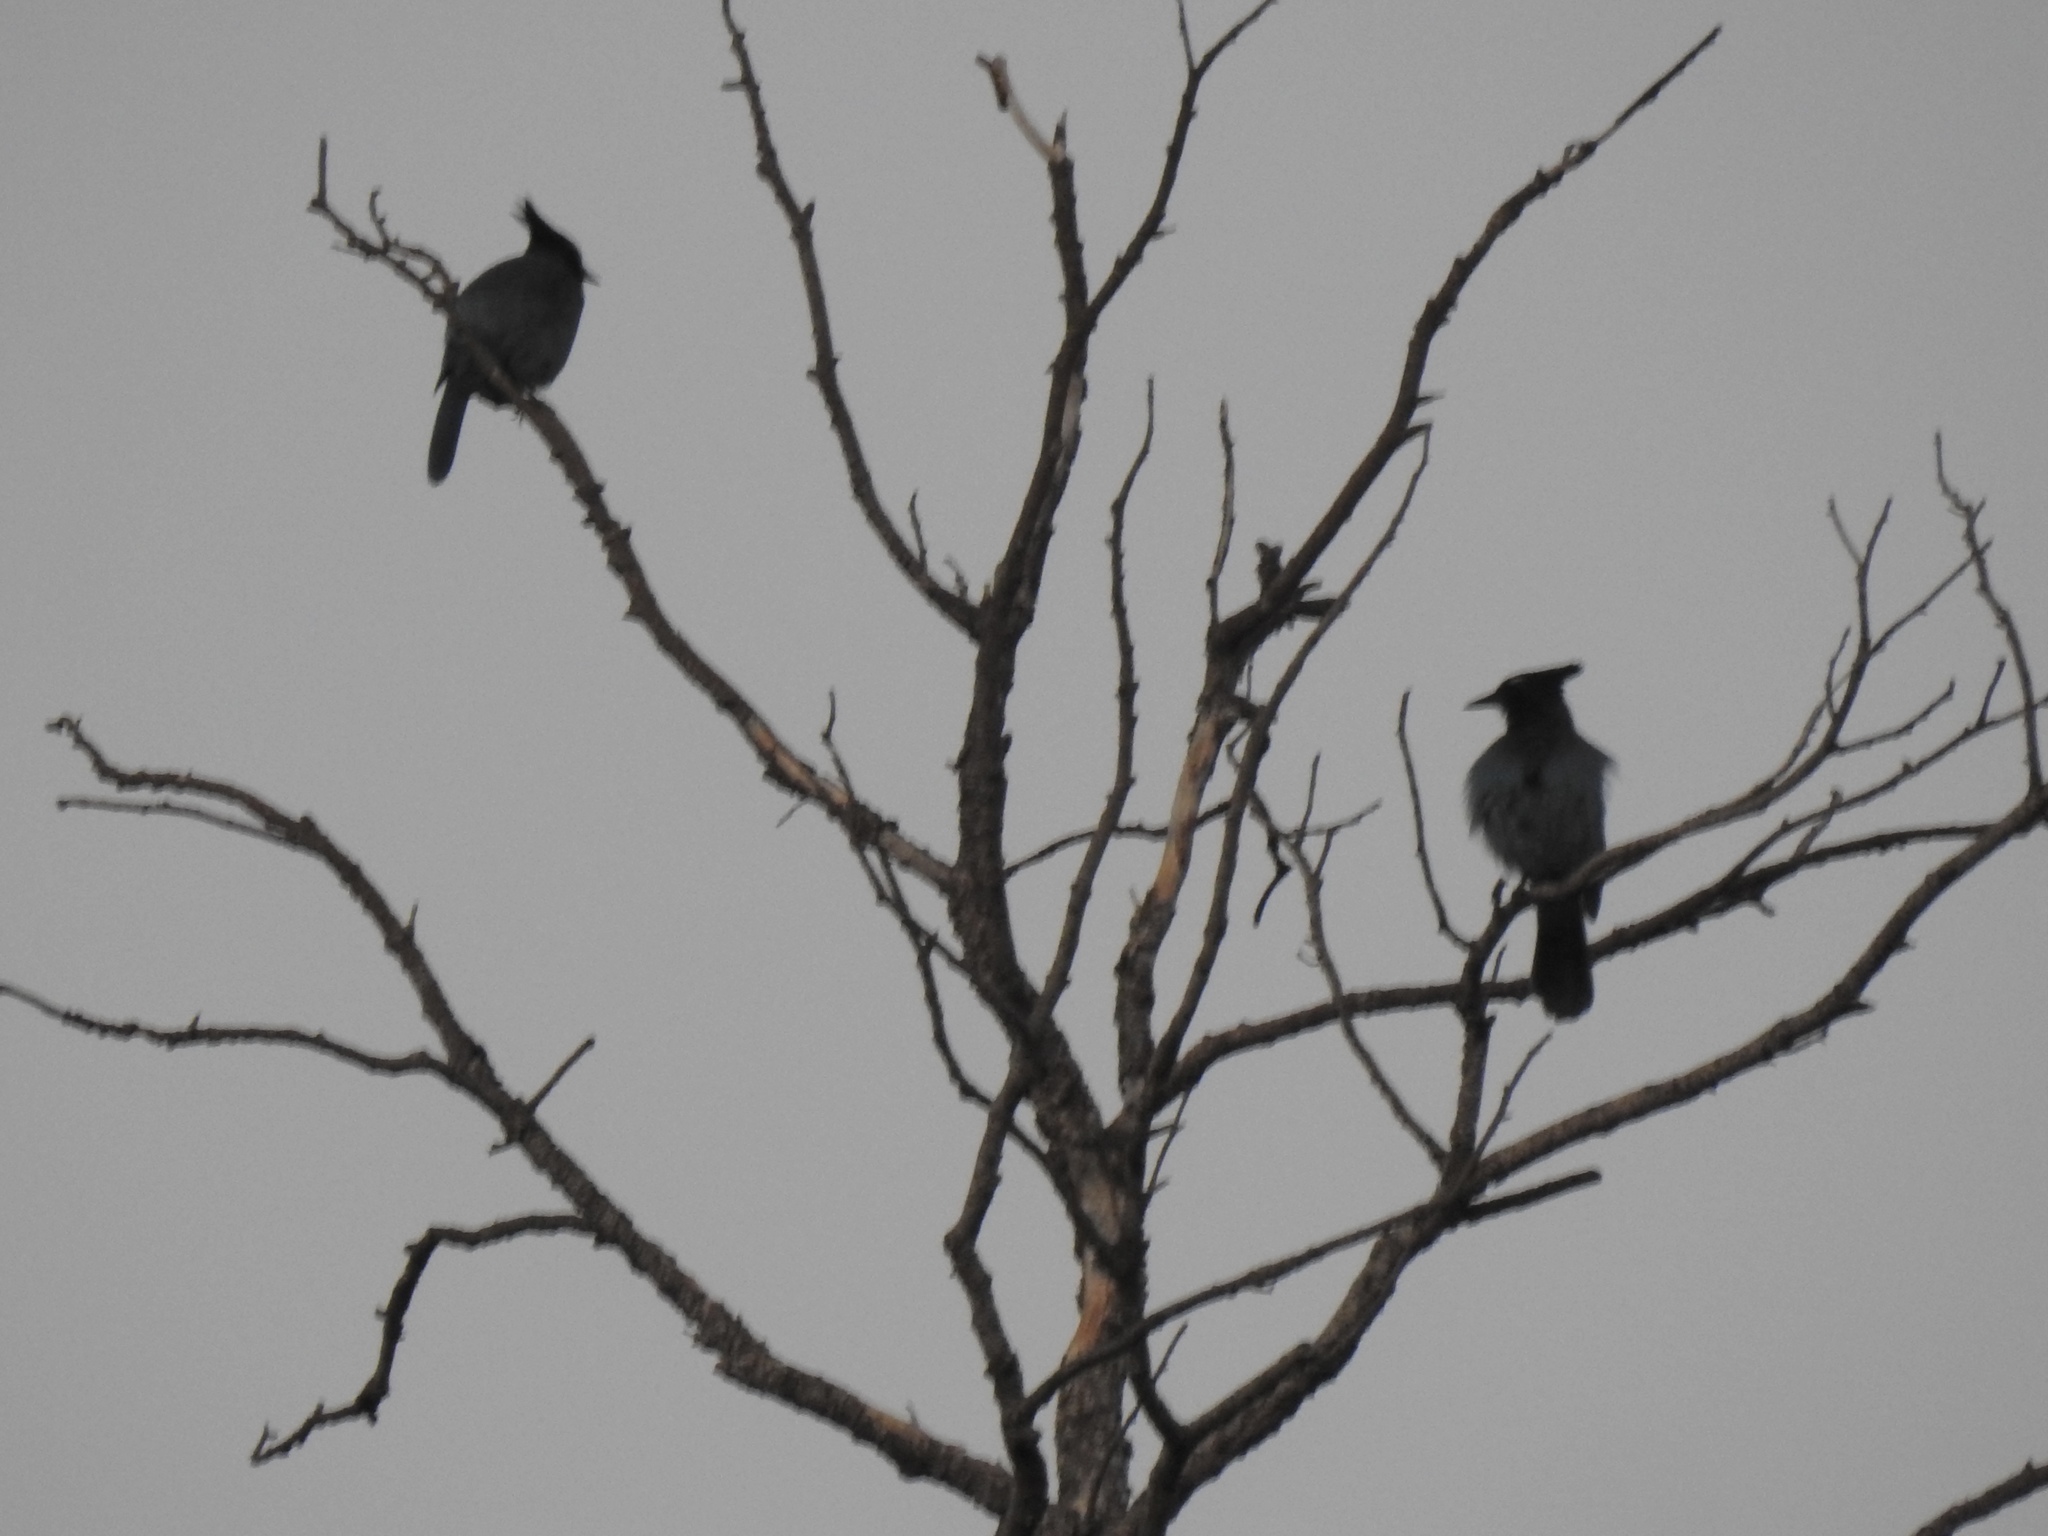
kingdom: Animalia
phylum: Chordata
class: Aves
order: Passeriformes
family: Corvidae
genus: Cyanocitta
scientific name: Cyanocitta stelleri
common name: Steller's jay
